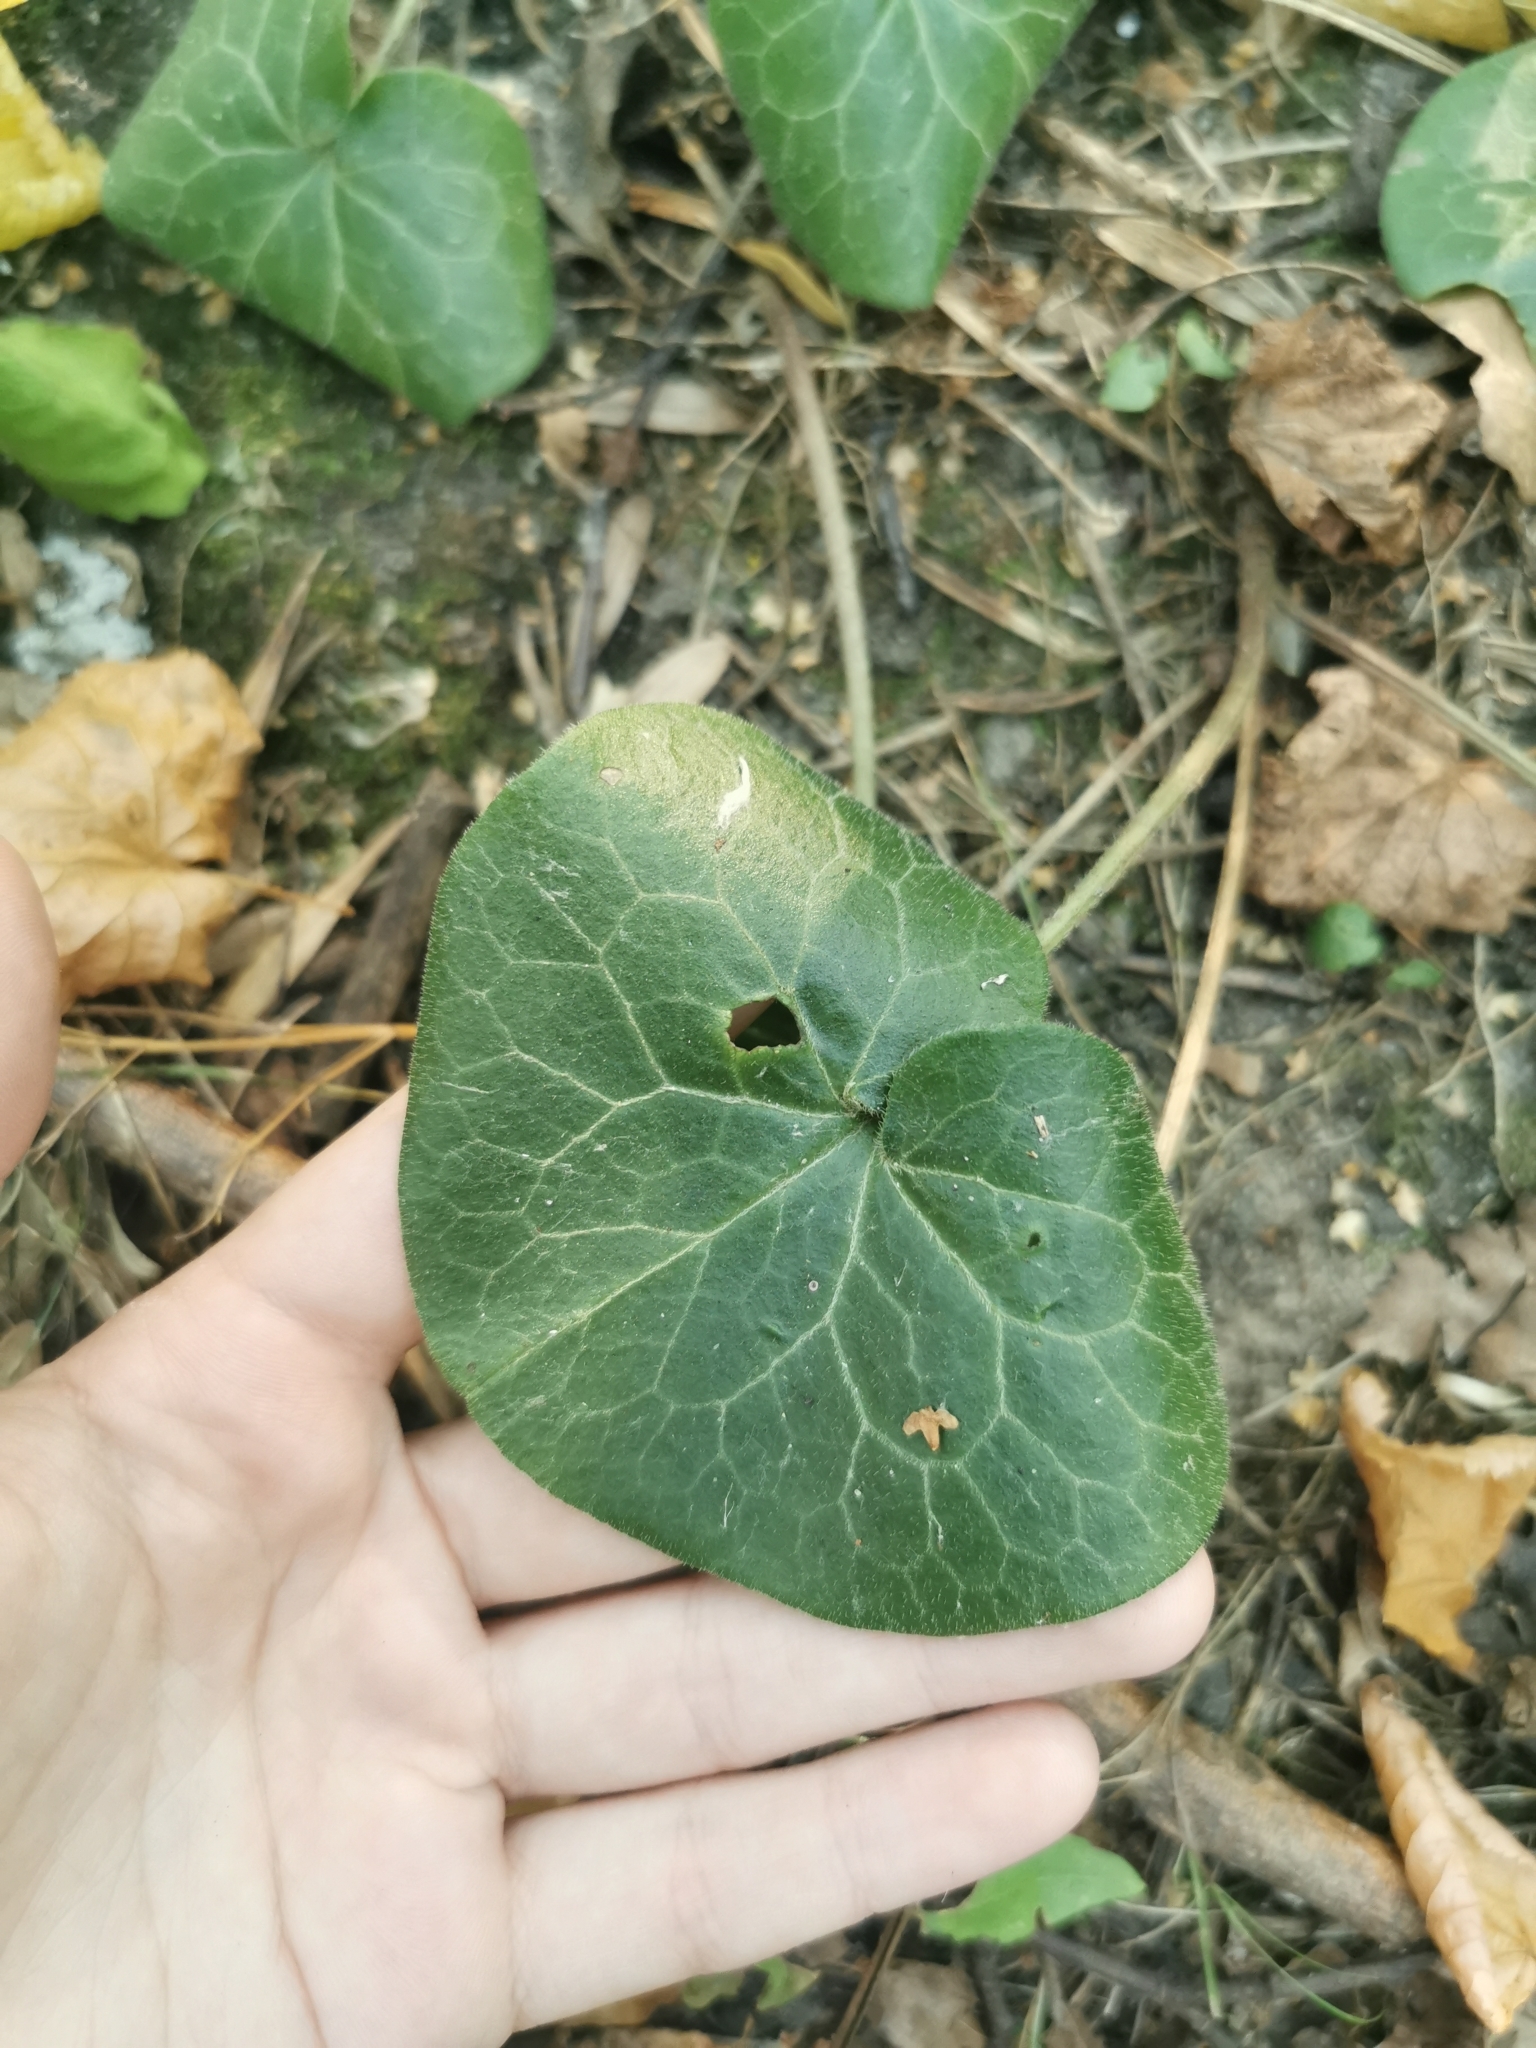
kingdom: Plantae
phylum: Tracheophyta
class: Magnoliopsida
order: Piperales
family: Aristolochiaceae
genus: Asarum
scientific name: Asarum europaeum
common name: Asarabacca
